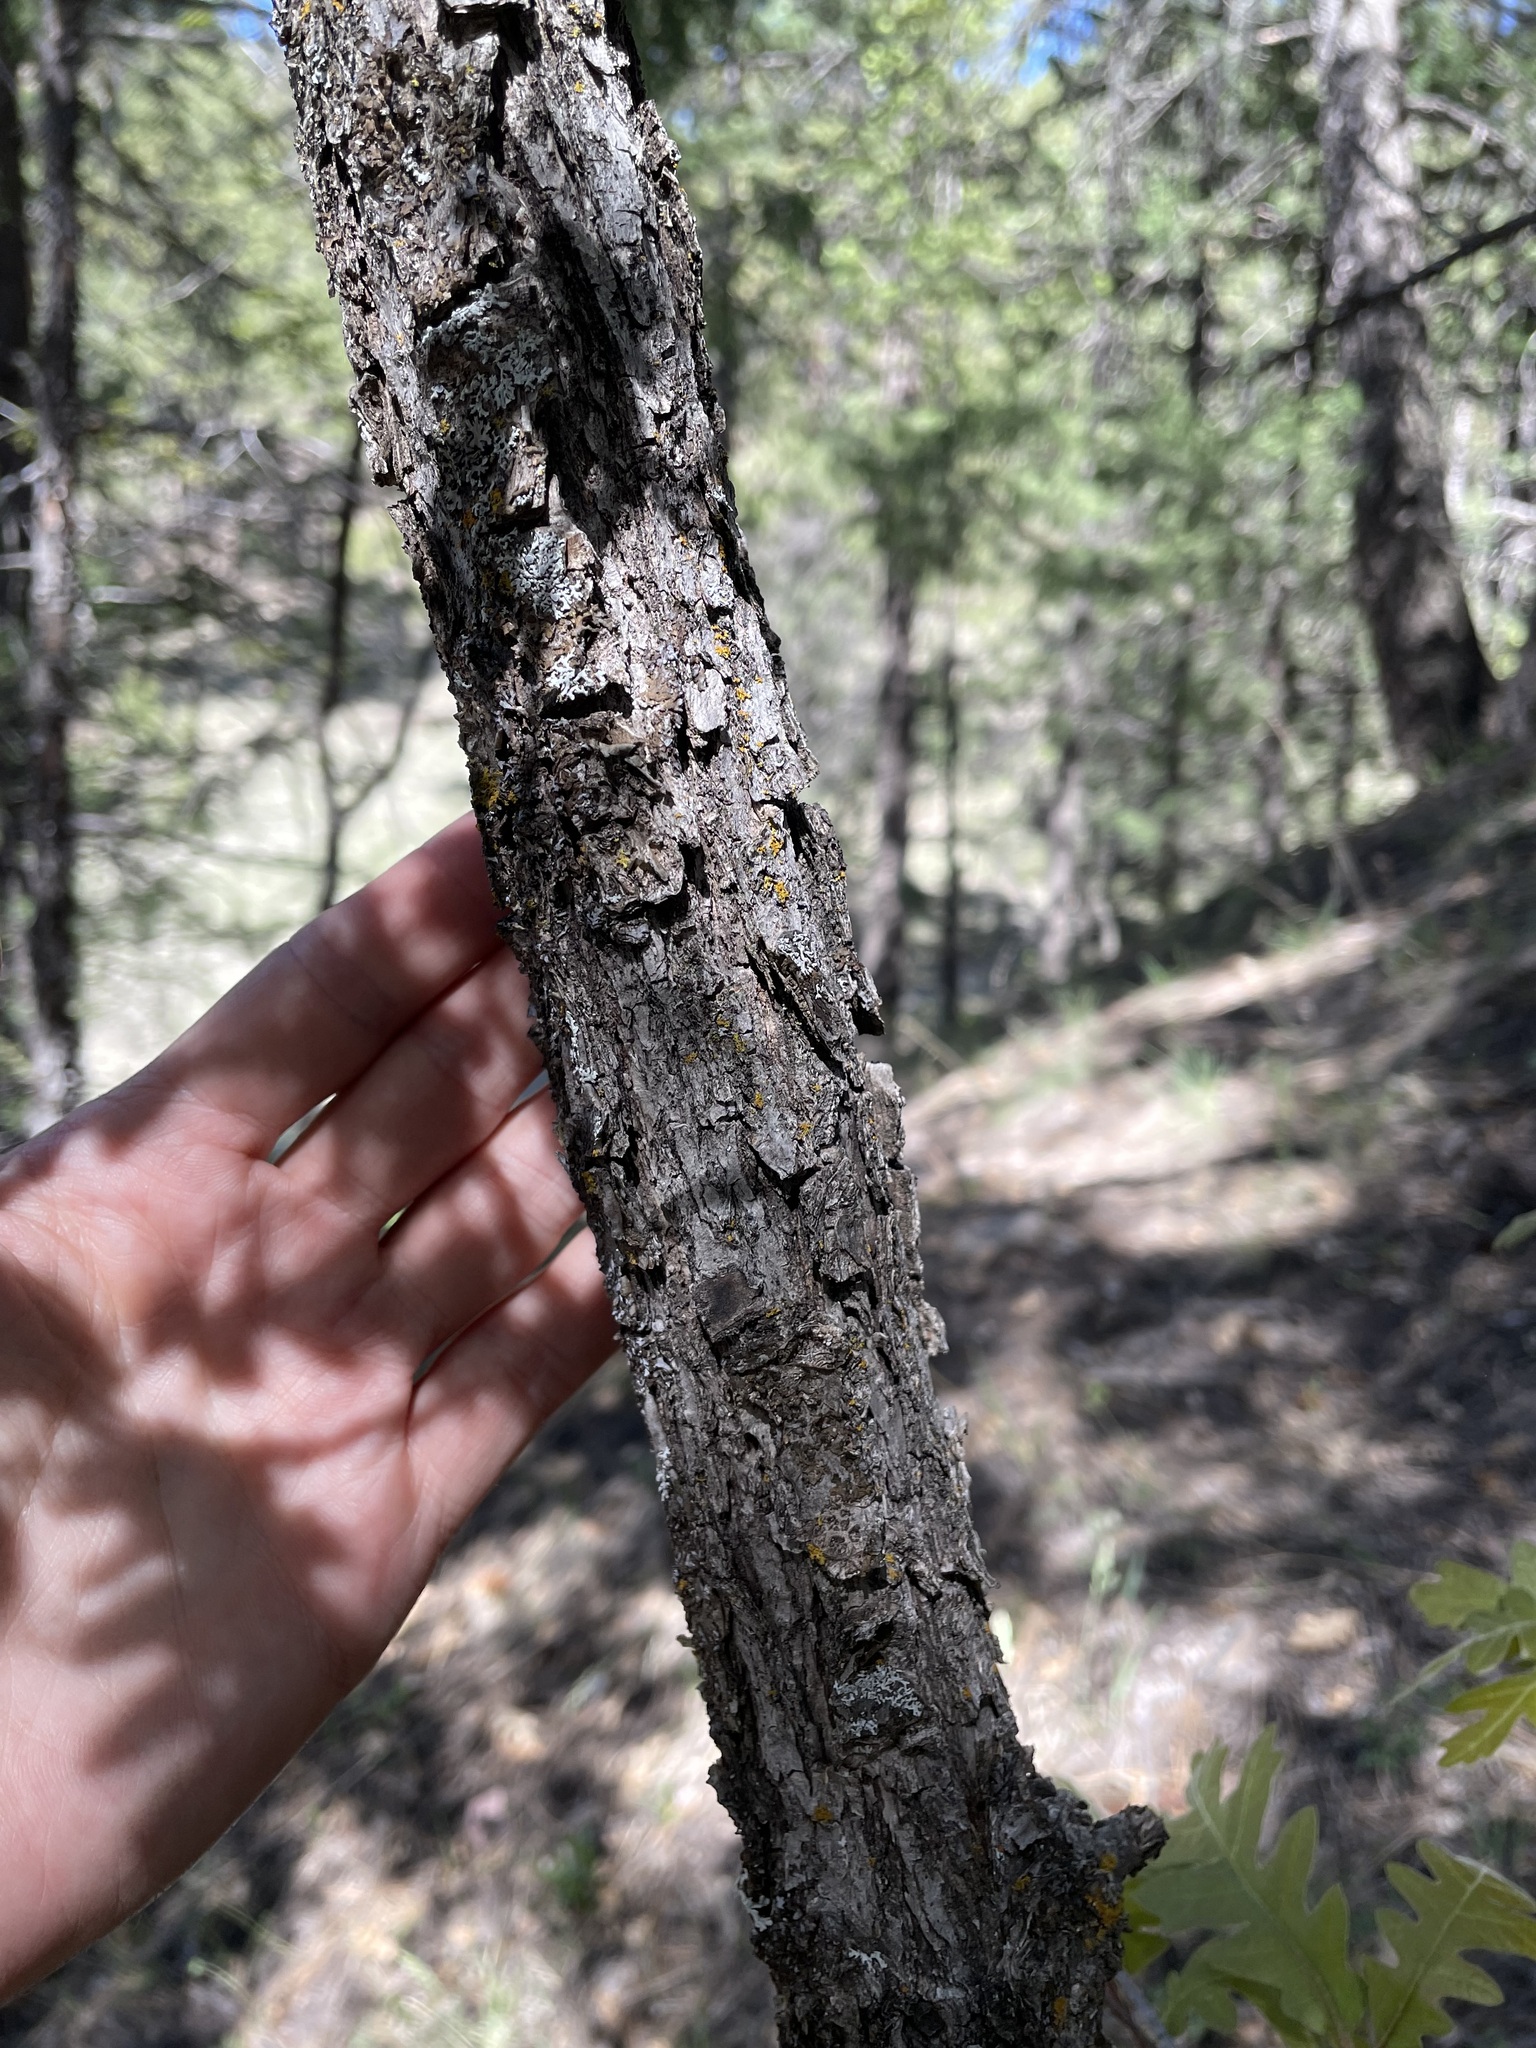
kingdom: Plantae
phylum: Tracheophyta
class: Magnoliopsida
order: Fagales
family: Fagaceae
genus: Quercus
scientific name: Quercus gambelii
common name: Gambel oak
